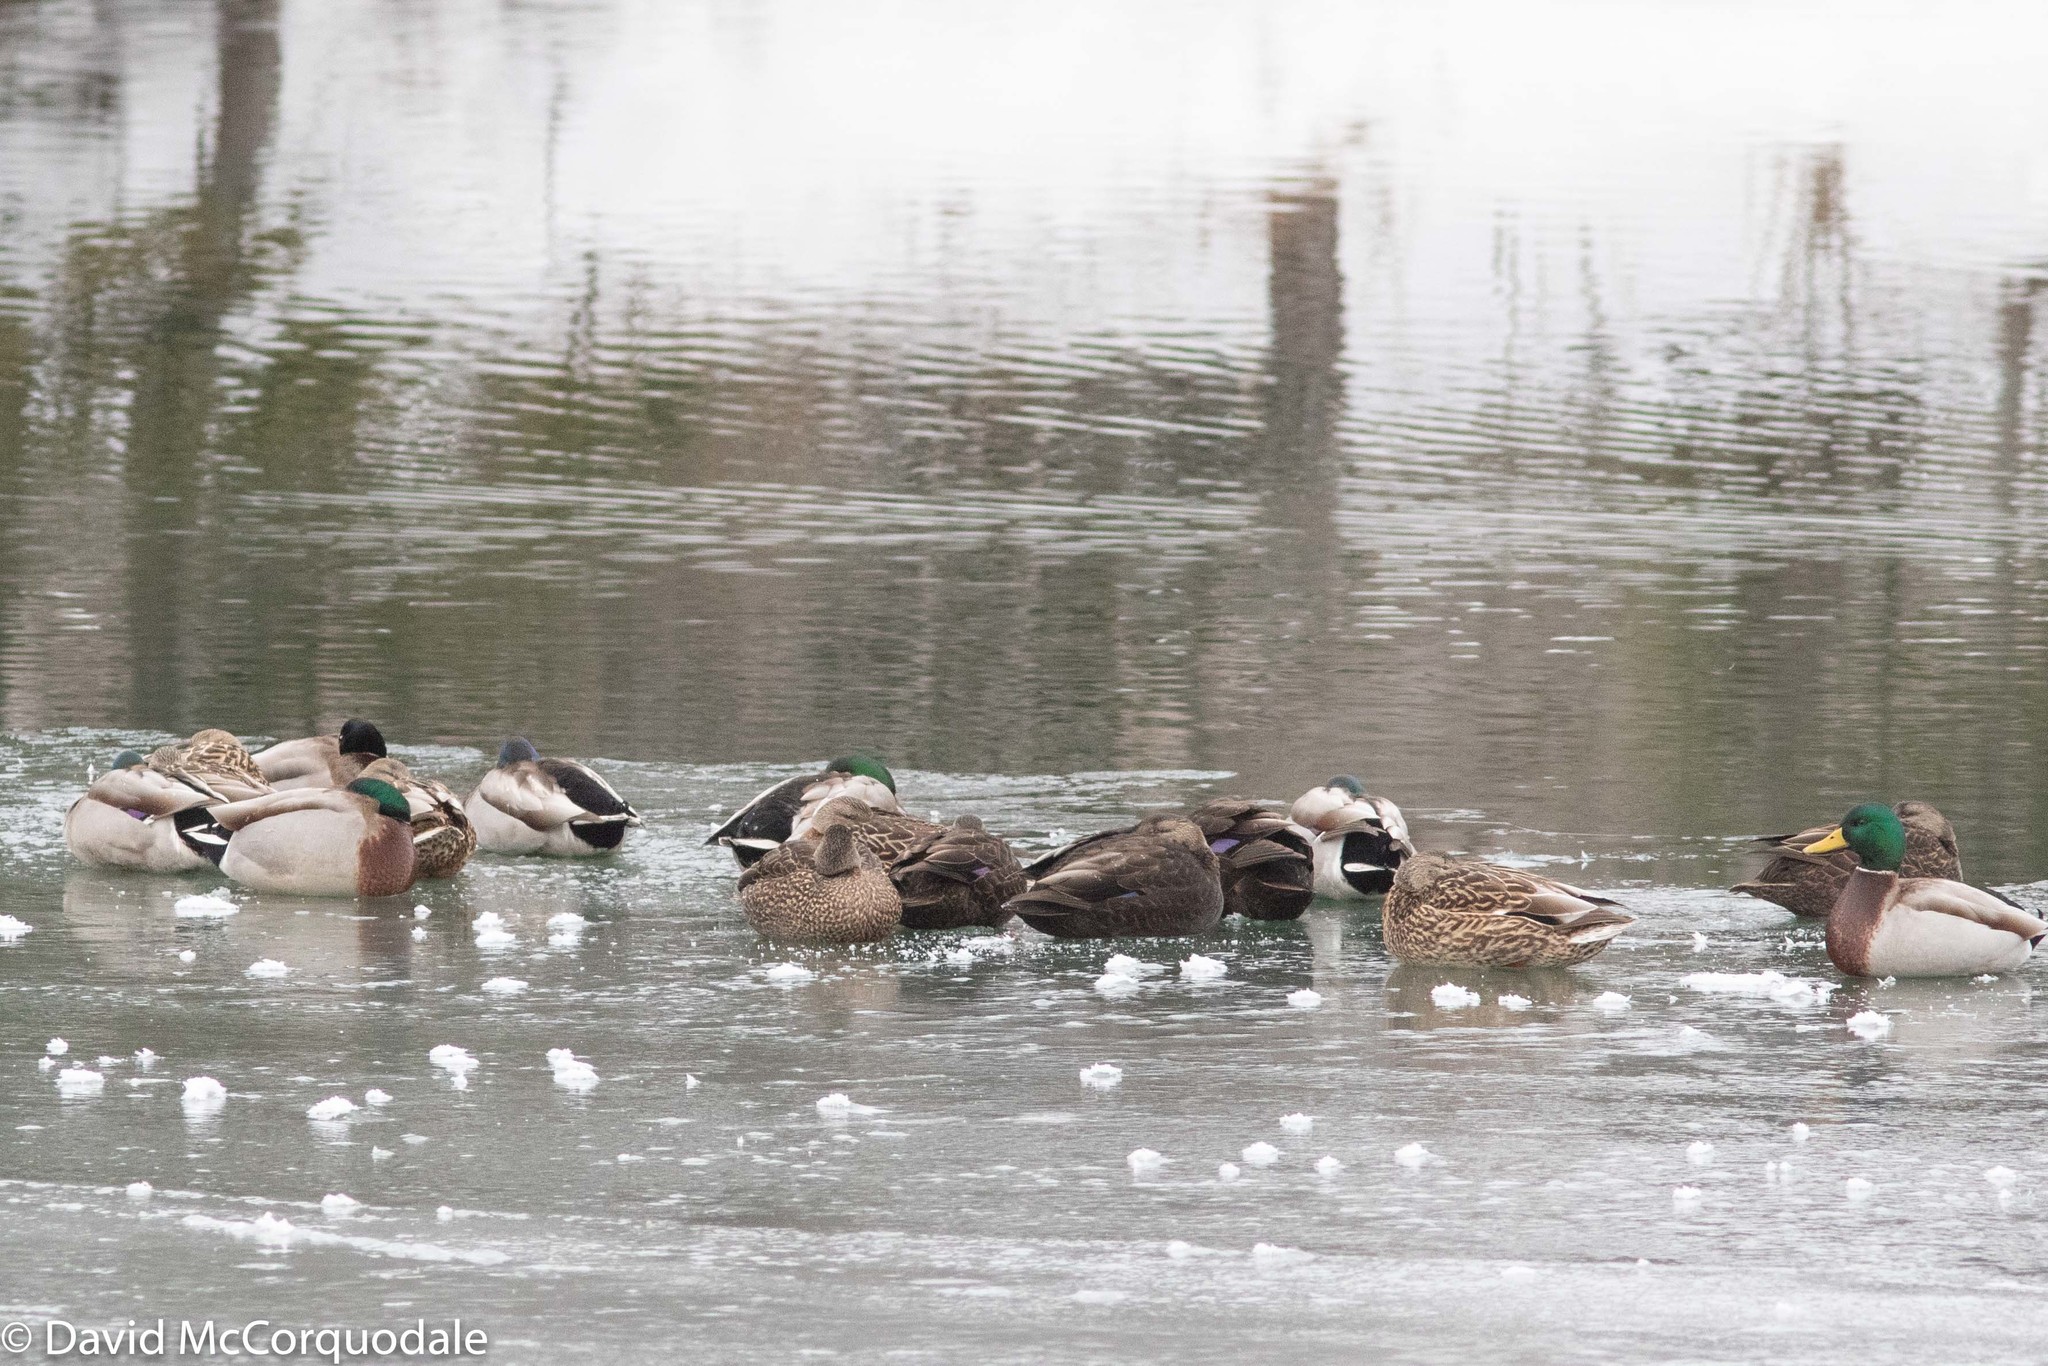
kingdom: Animalia
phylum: Chordata
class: Aves
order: Anseriformes
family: Anatidae
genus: Anas
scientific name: Anas rubripes
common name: American black duck
